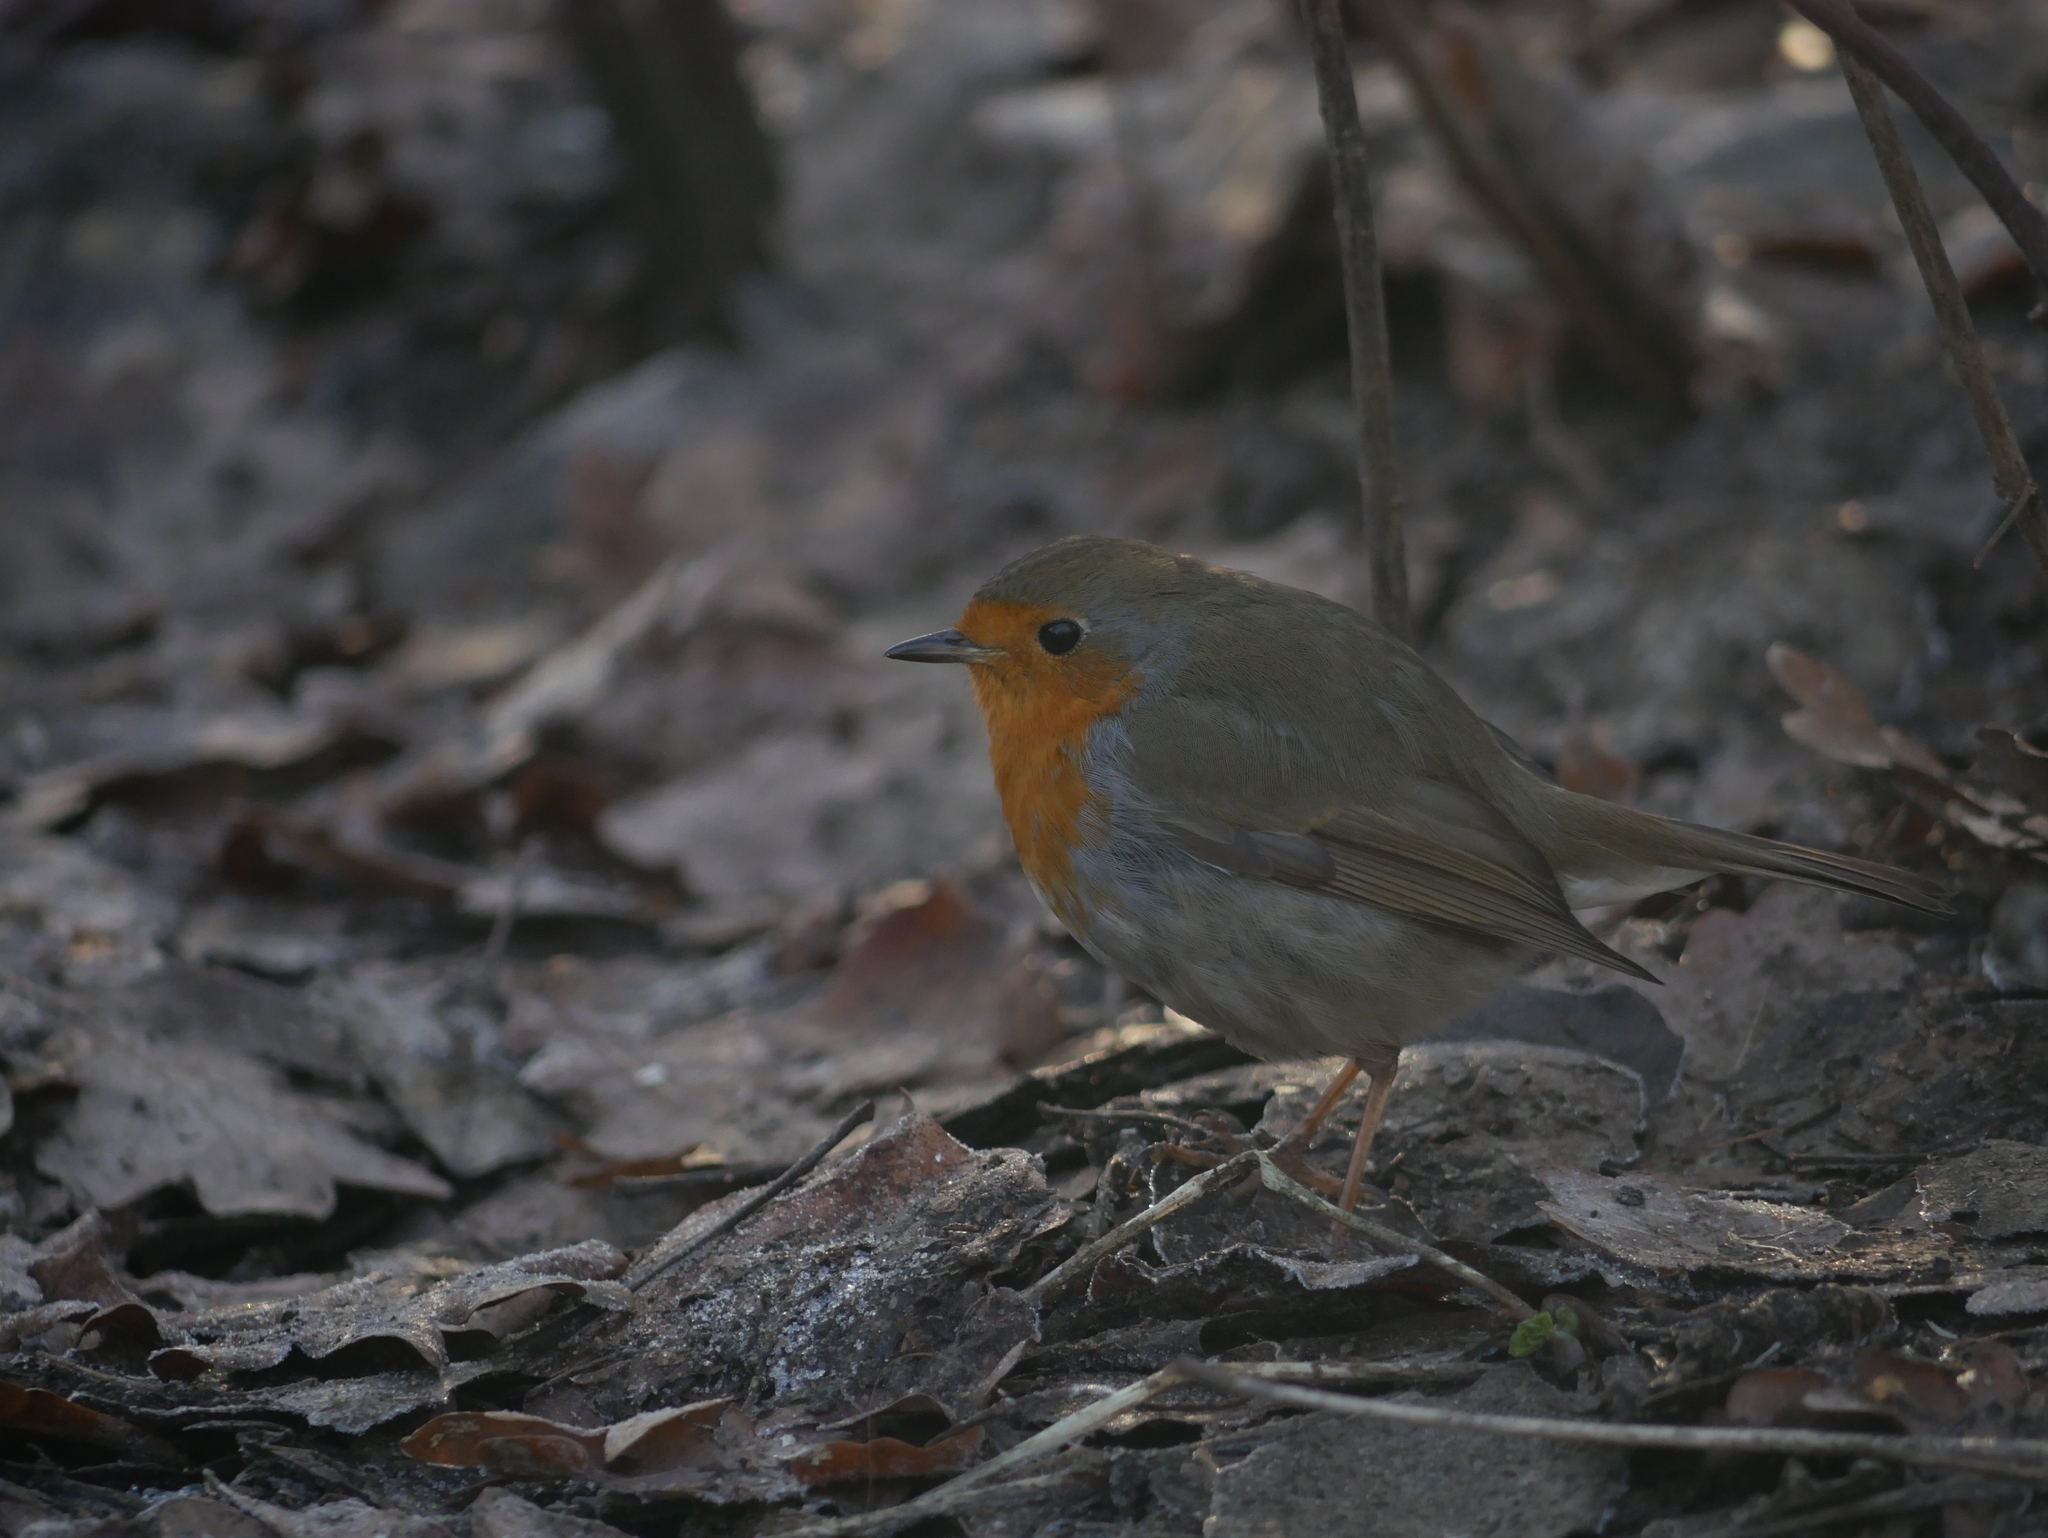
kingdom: Animalia
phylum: Chordata
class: Aves
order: Passeriformes
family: Muscicapidae
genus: Erithacus
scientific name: Erithacus rubecula
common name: European robin
